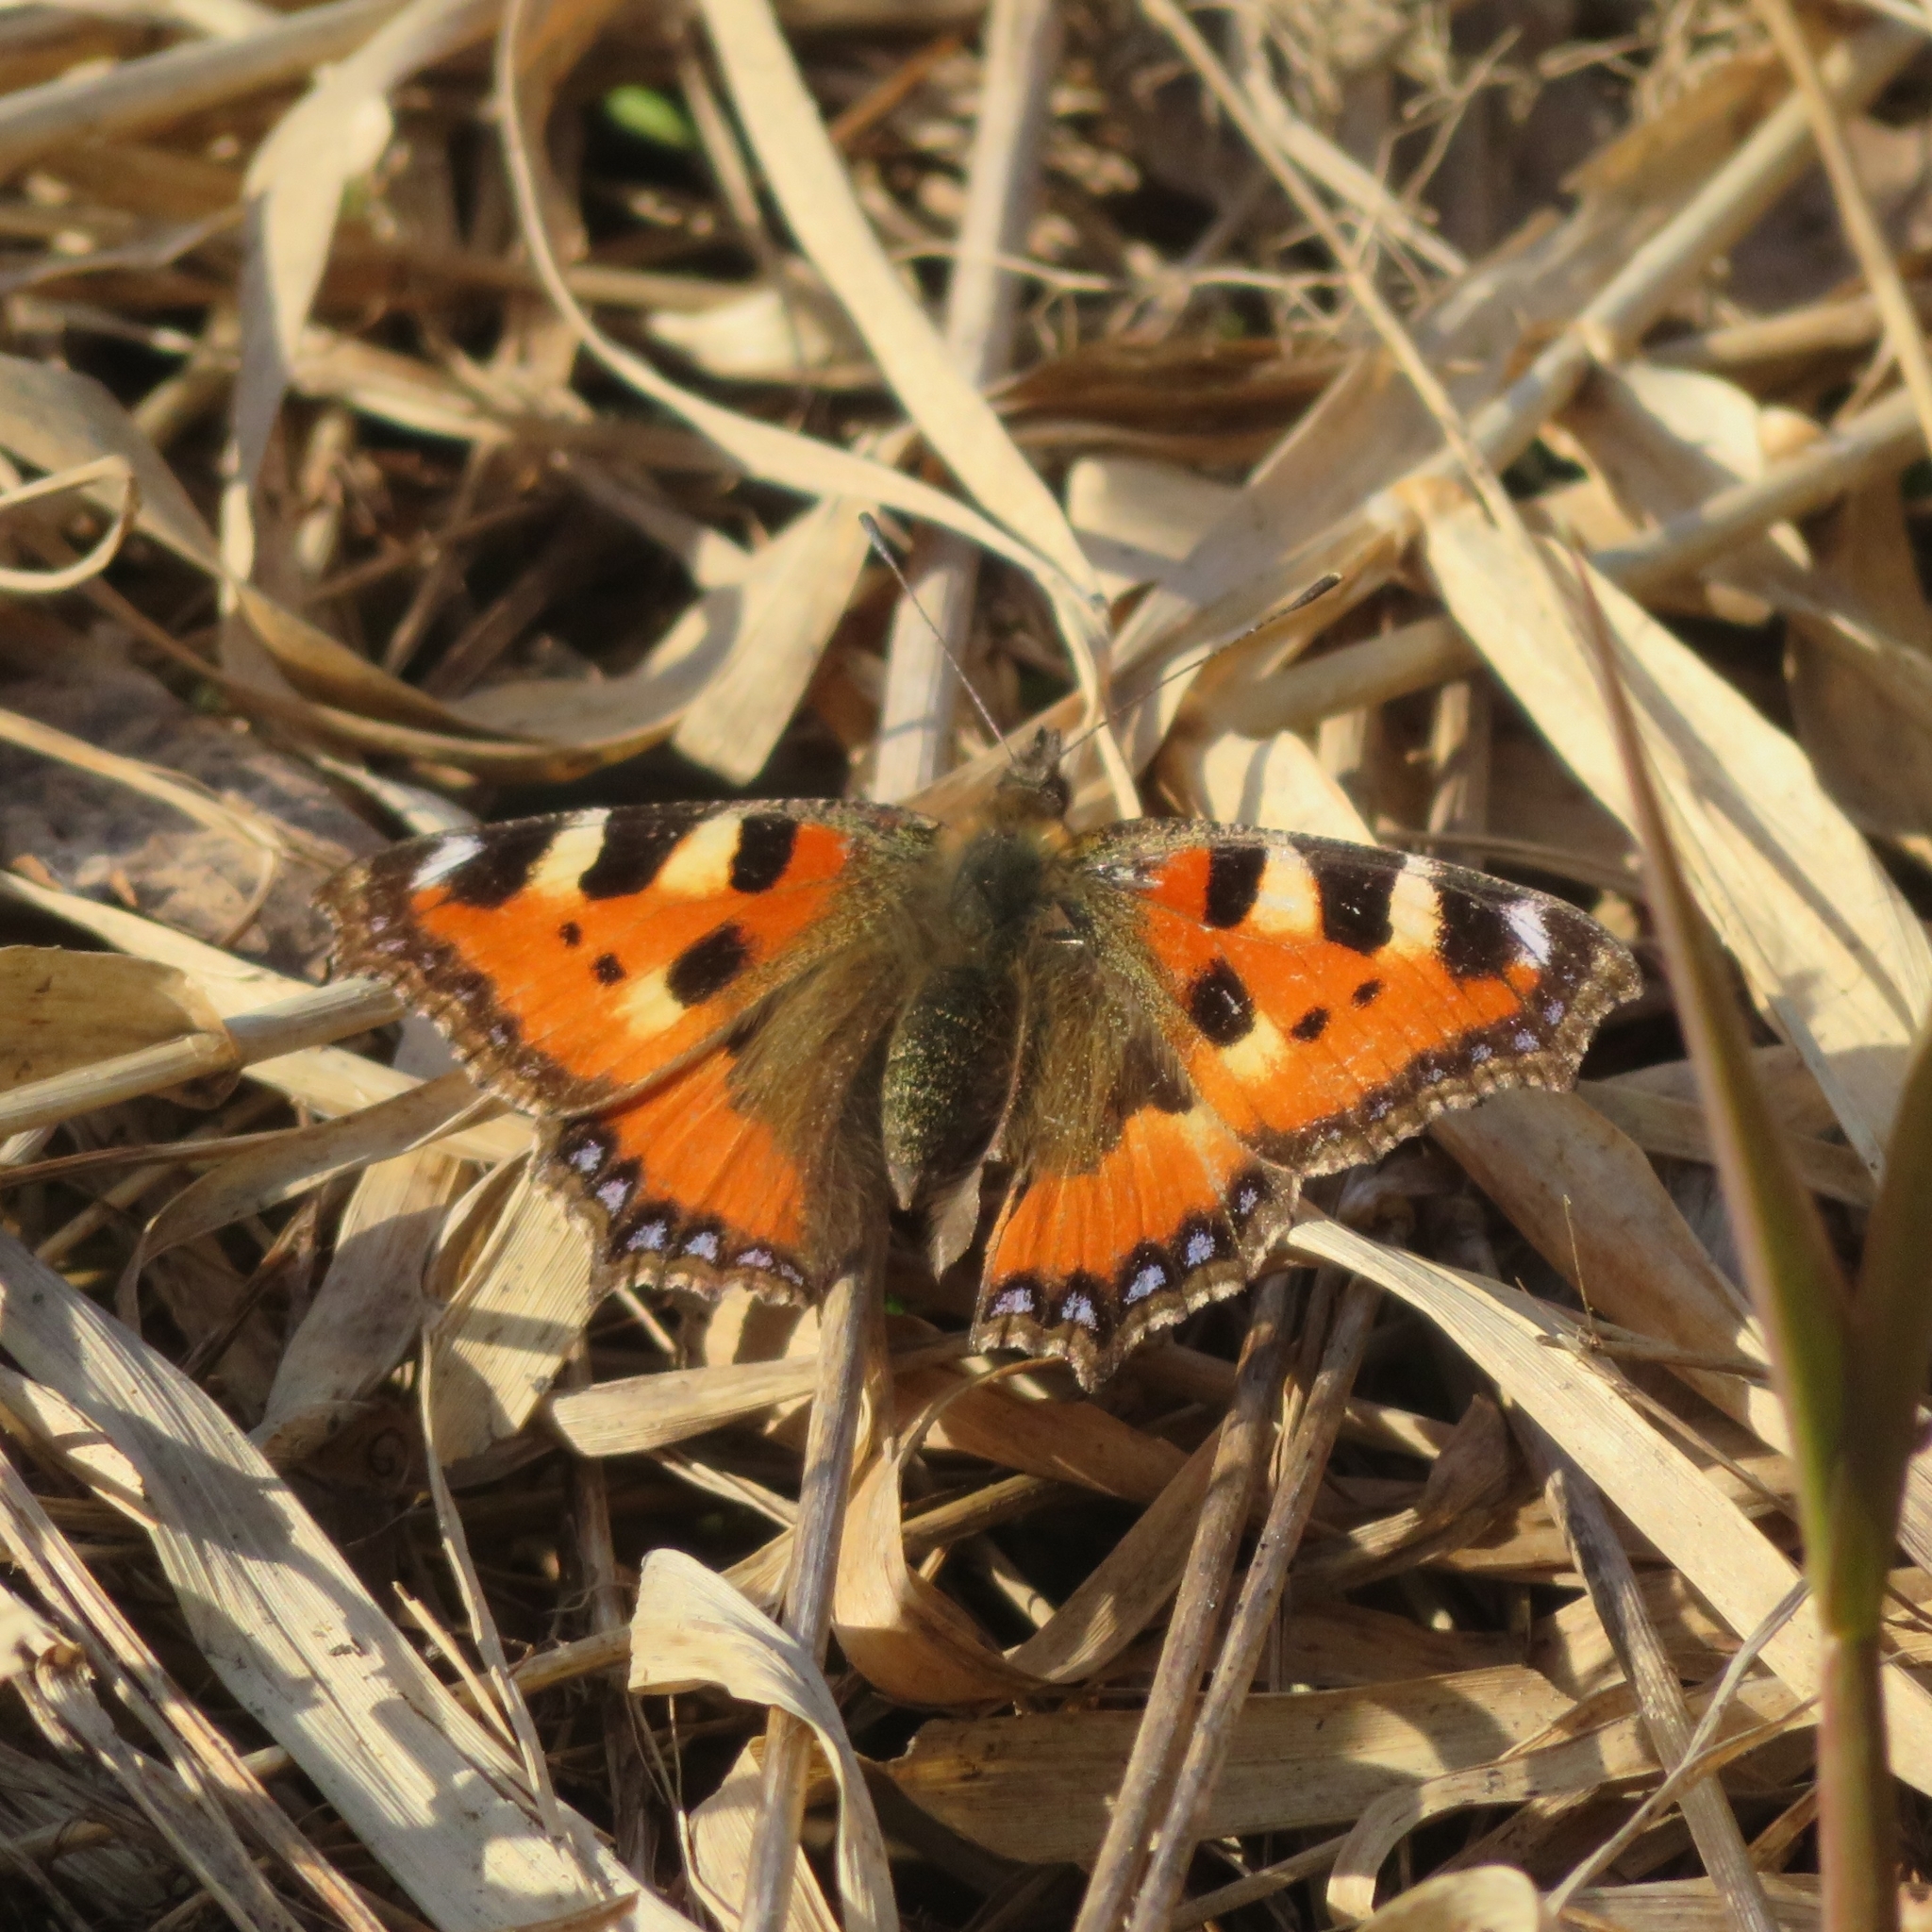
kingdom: Animalia
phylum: Arthropoda
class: Insecta
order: Lepidoptera
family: Nymphalidae
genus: Aglais
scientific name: Aglais urticae
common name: Small tortoiseshell
